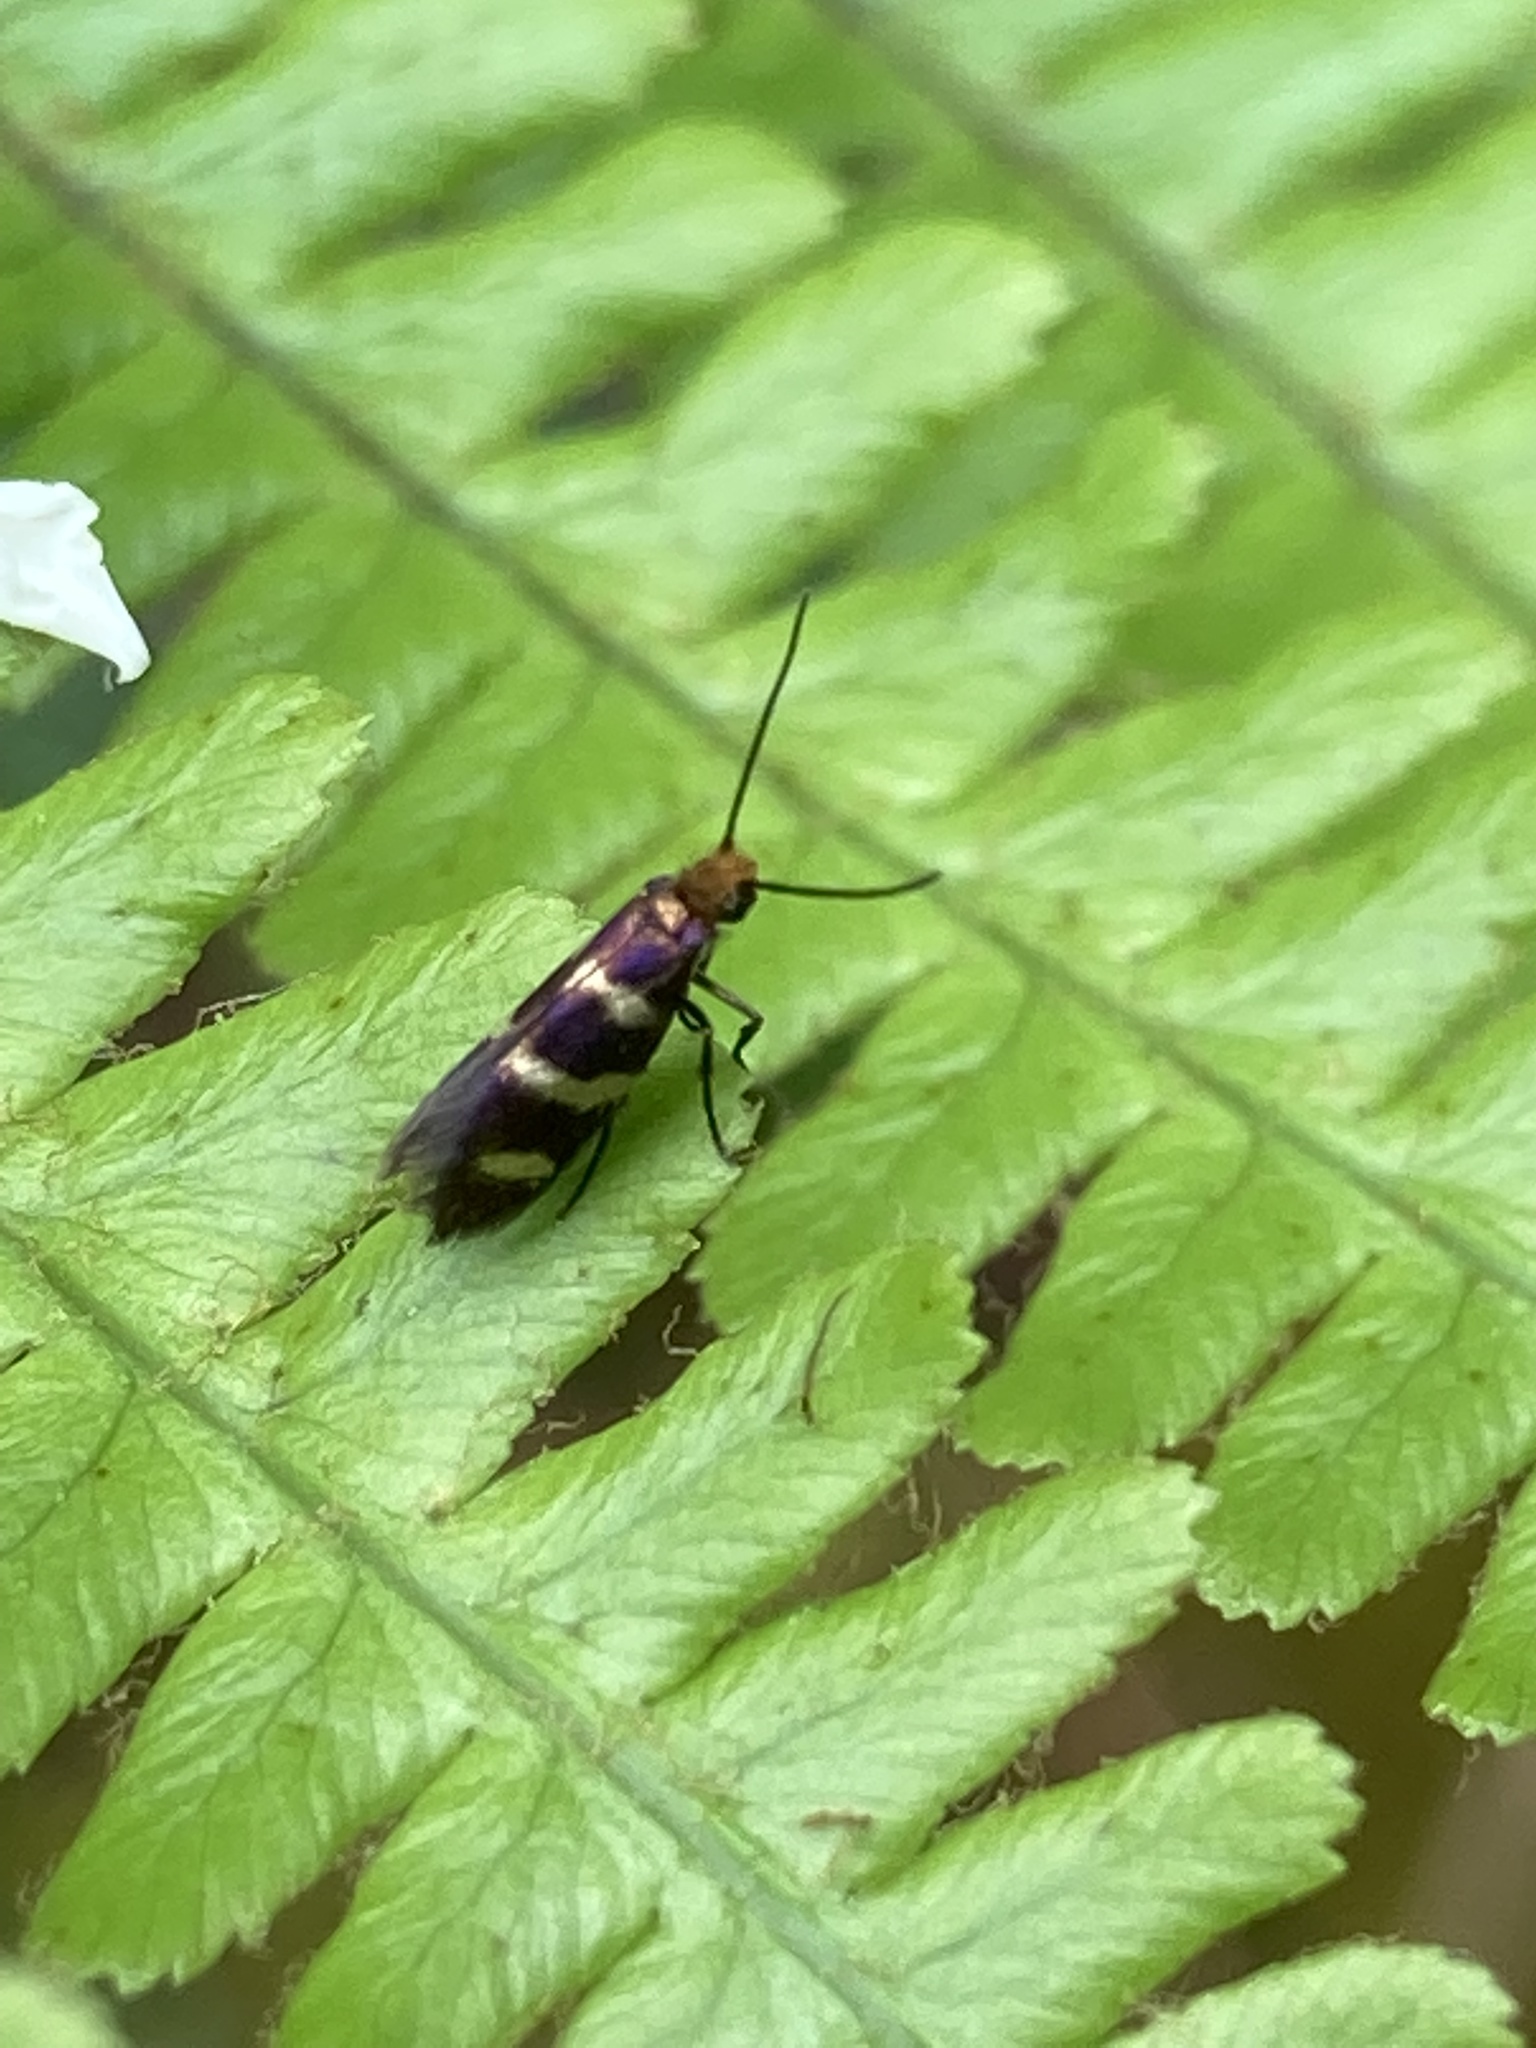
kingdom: Animalia
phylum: Arthropoda
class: Insecta
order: Lepidoptera
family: Micropterigidae
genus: Micropterix
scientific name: Micropterix aureatella
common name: Yellow-barred gold
